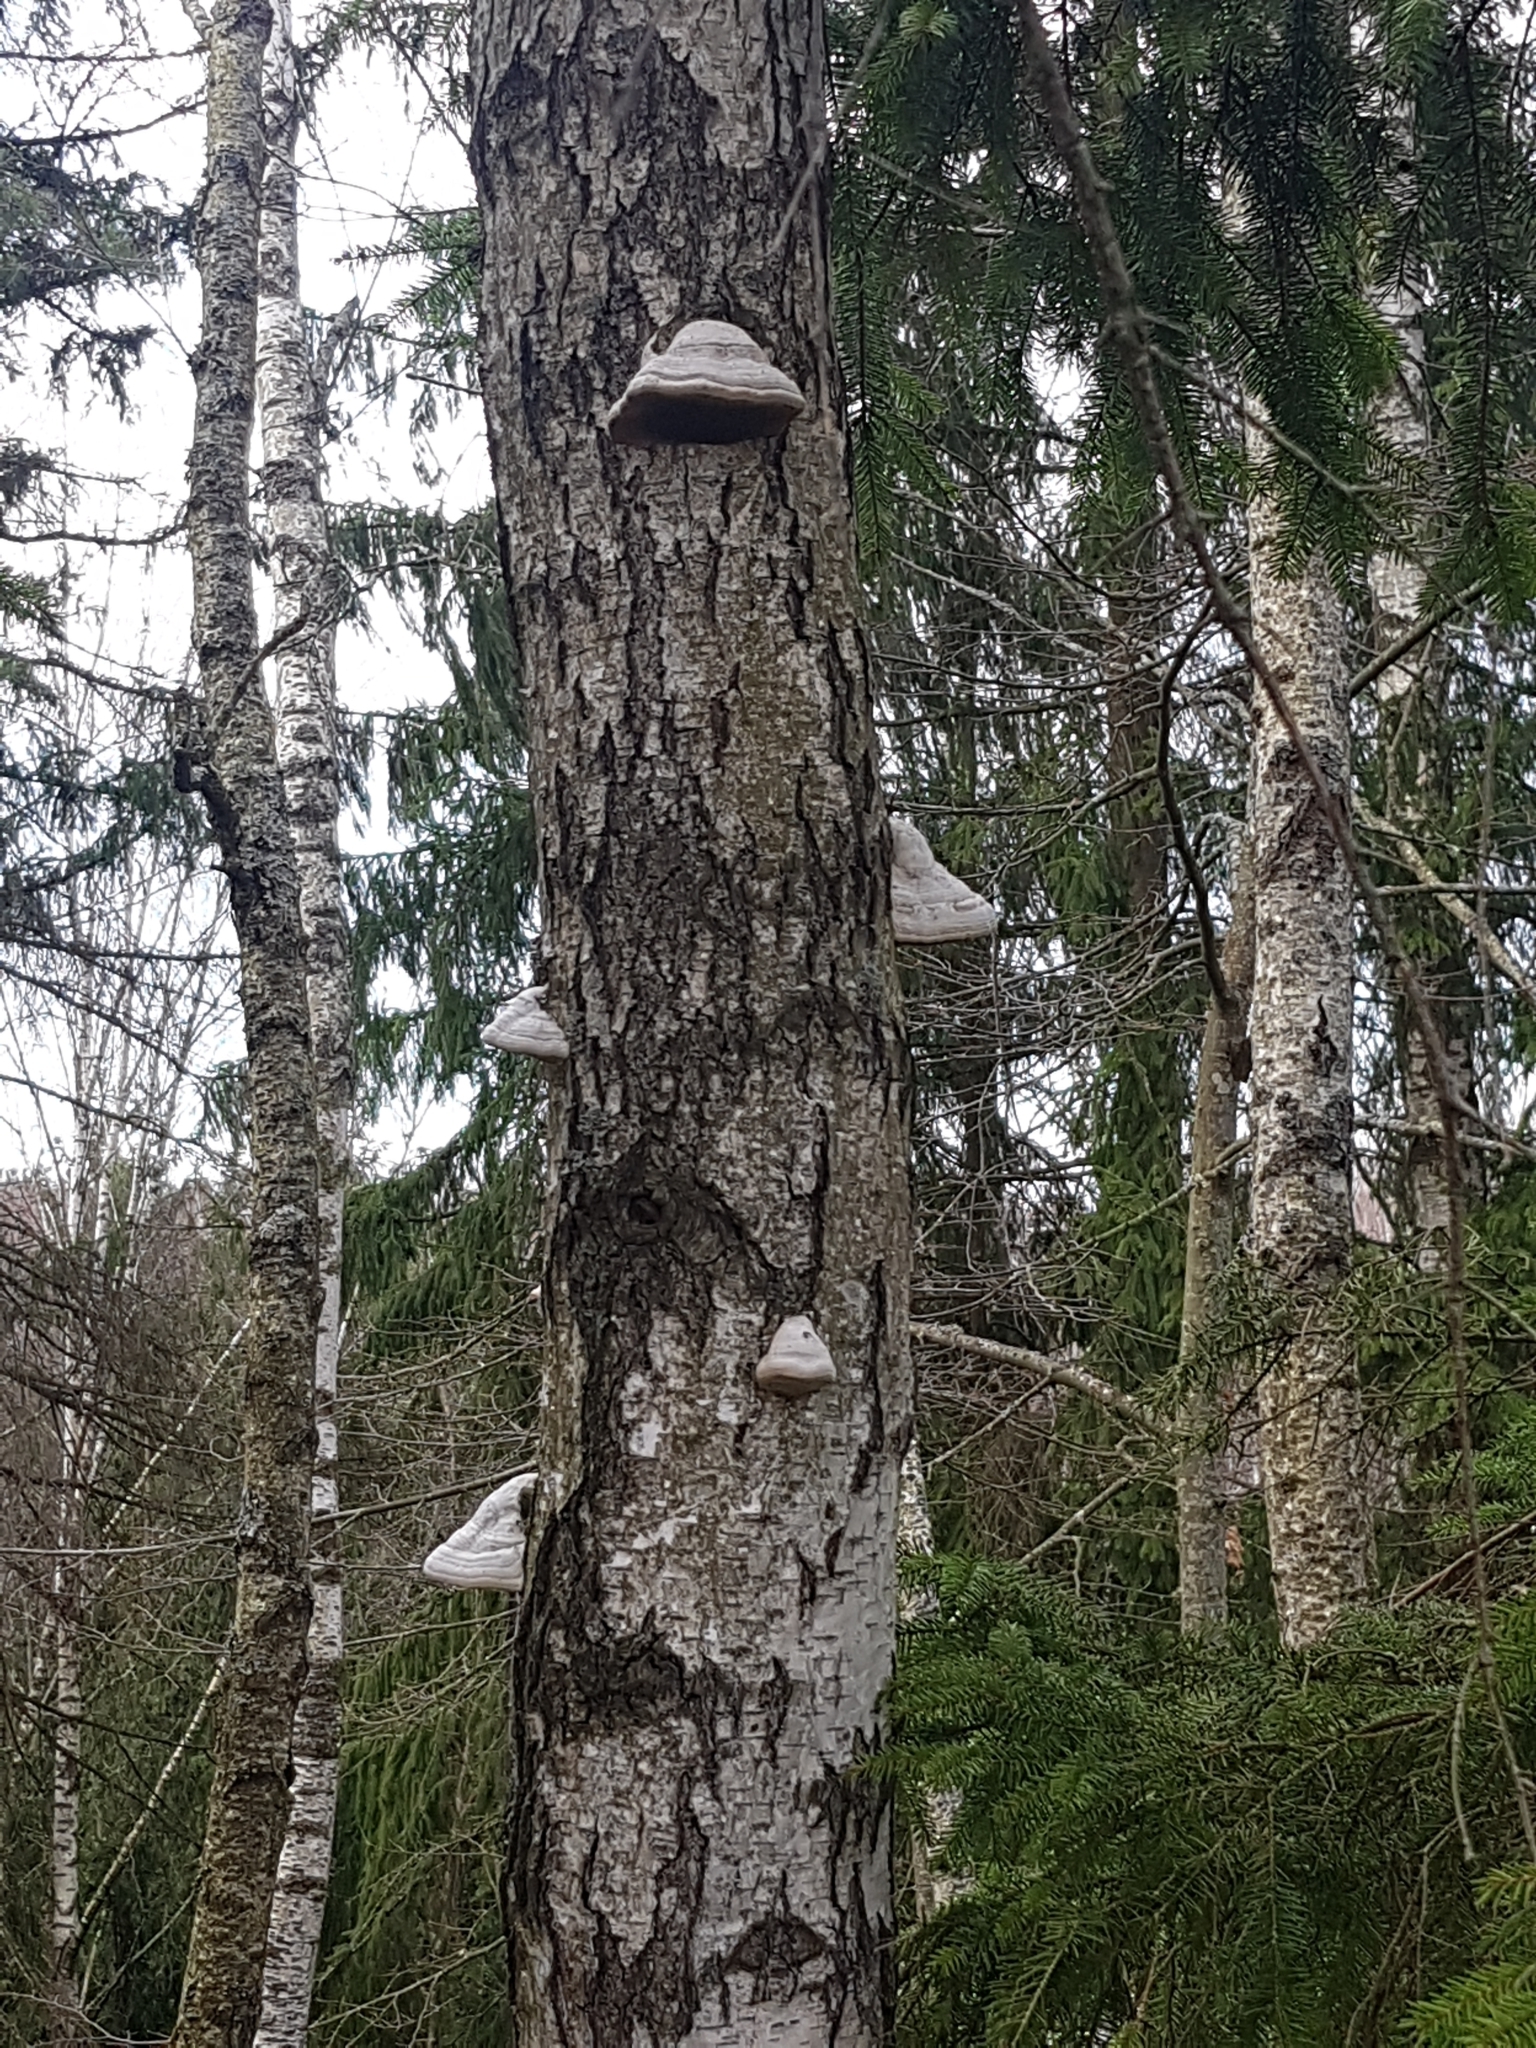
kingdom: Fungi
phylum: Basidiomycota
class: Agaricomycetes
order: Polyporales
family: Polyporaceae
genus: Fomes
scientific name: Fomes fomentarius
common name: Hoof fungus
